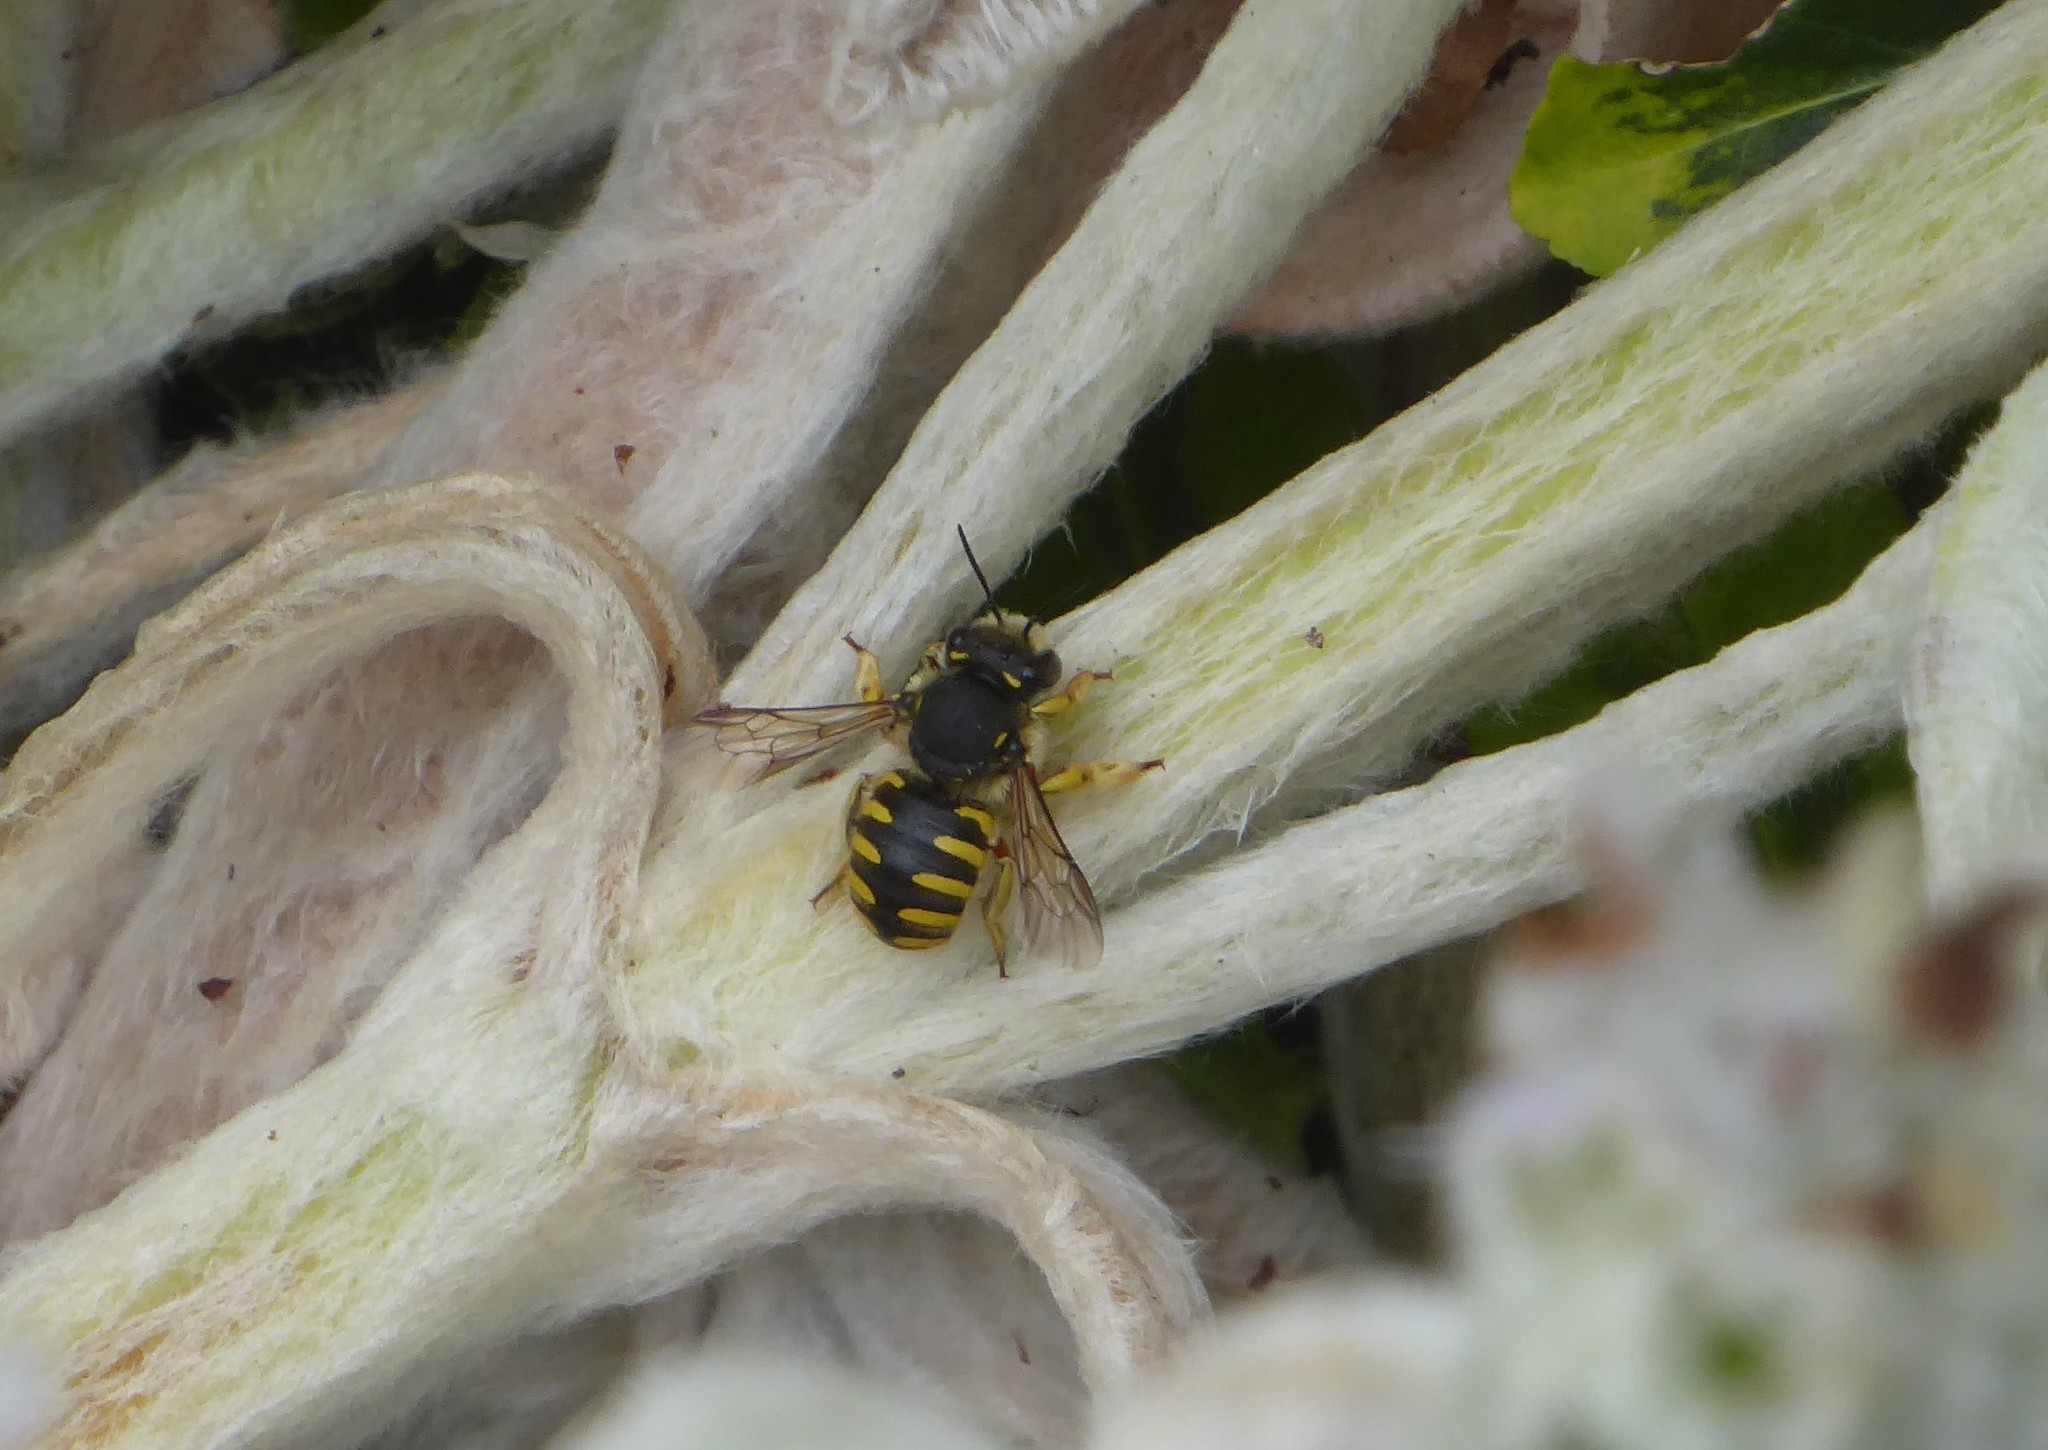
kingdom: Animalia
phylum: Arthropoda
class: Insecta
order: Hymenoptera
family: Megachilidae
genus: Anthidium
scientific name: Anthidium manicatum
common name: Wool carder bee
